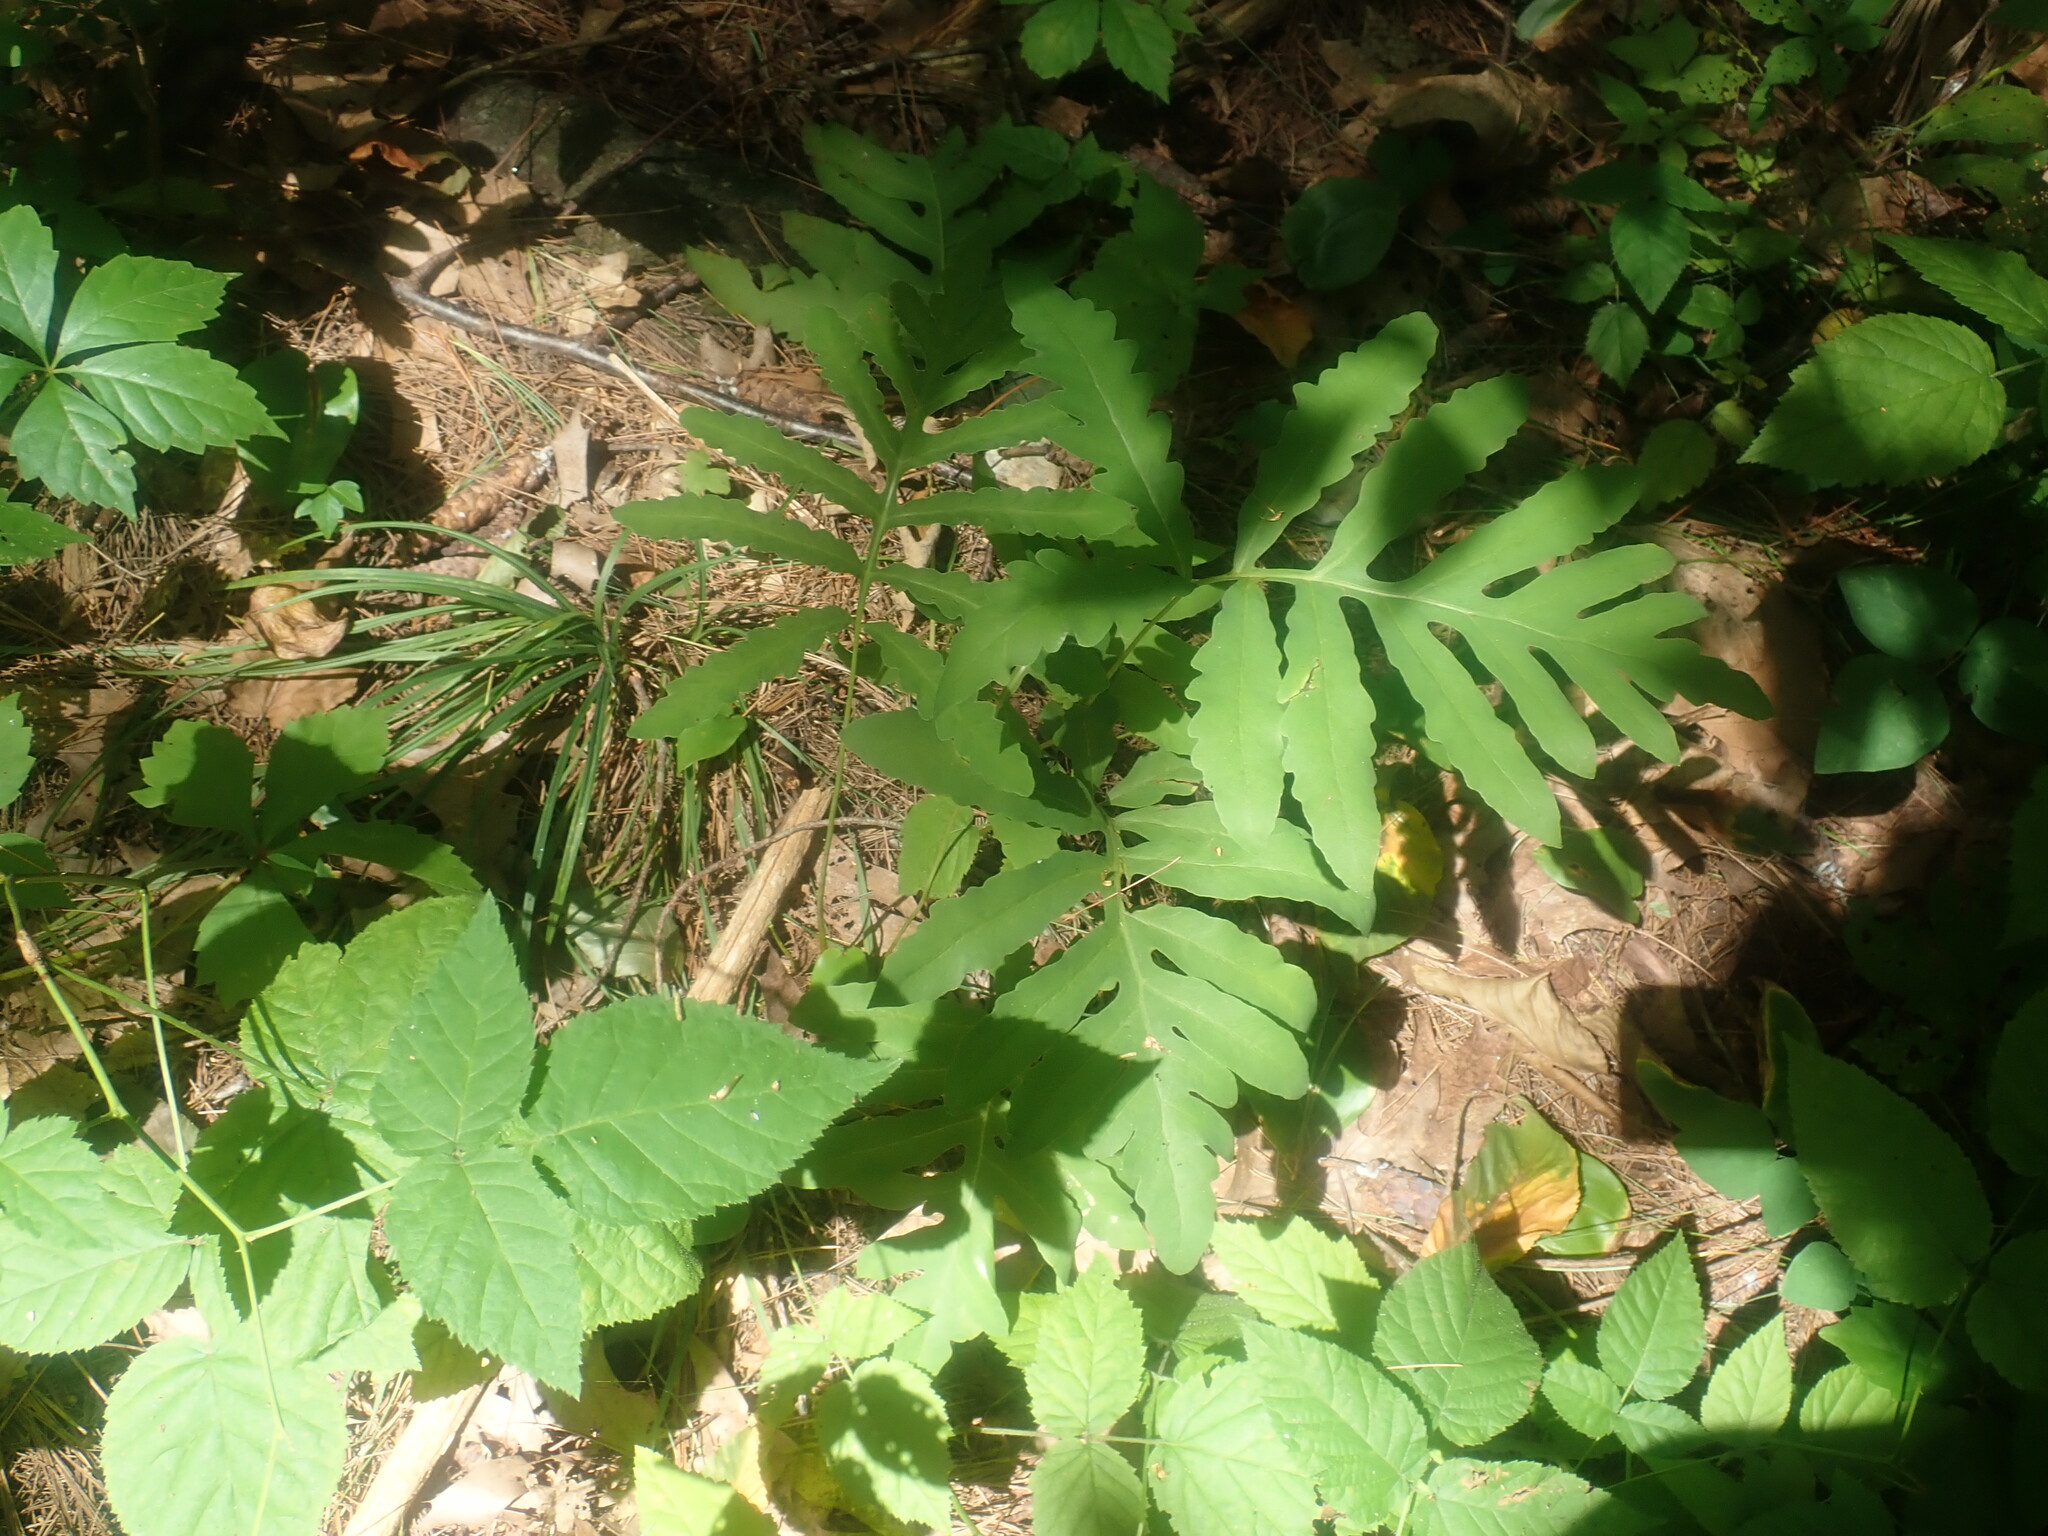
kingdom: Plantae
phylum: Tracheophyta
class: Polypodiopsida
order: Polypodiales
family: Onocleaceae
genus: Onoclea
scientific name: Onoclea sensibilis
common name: Sensitive fern
